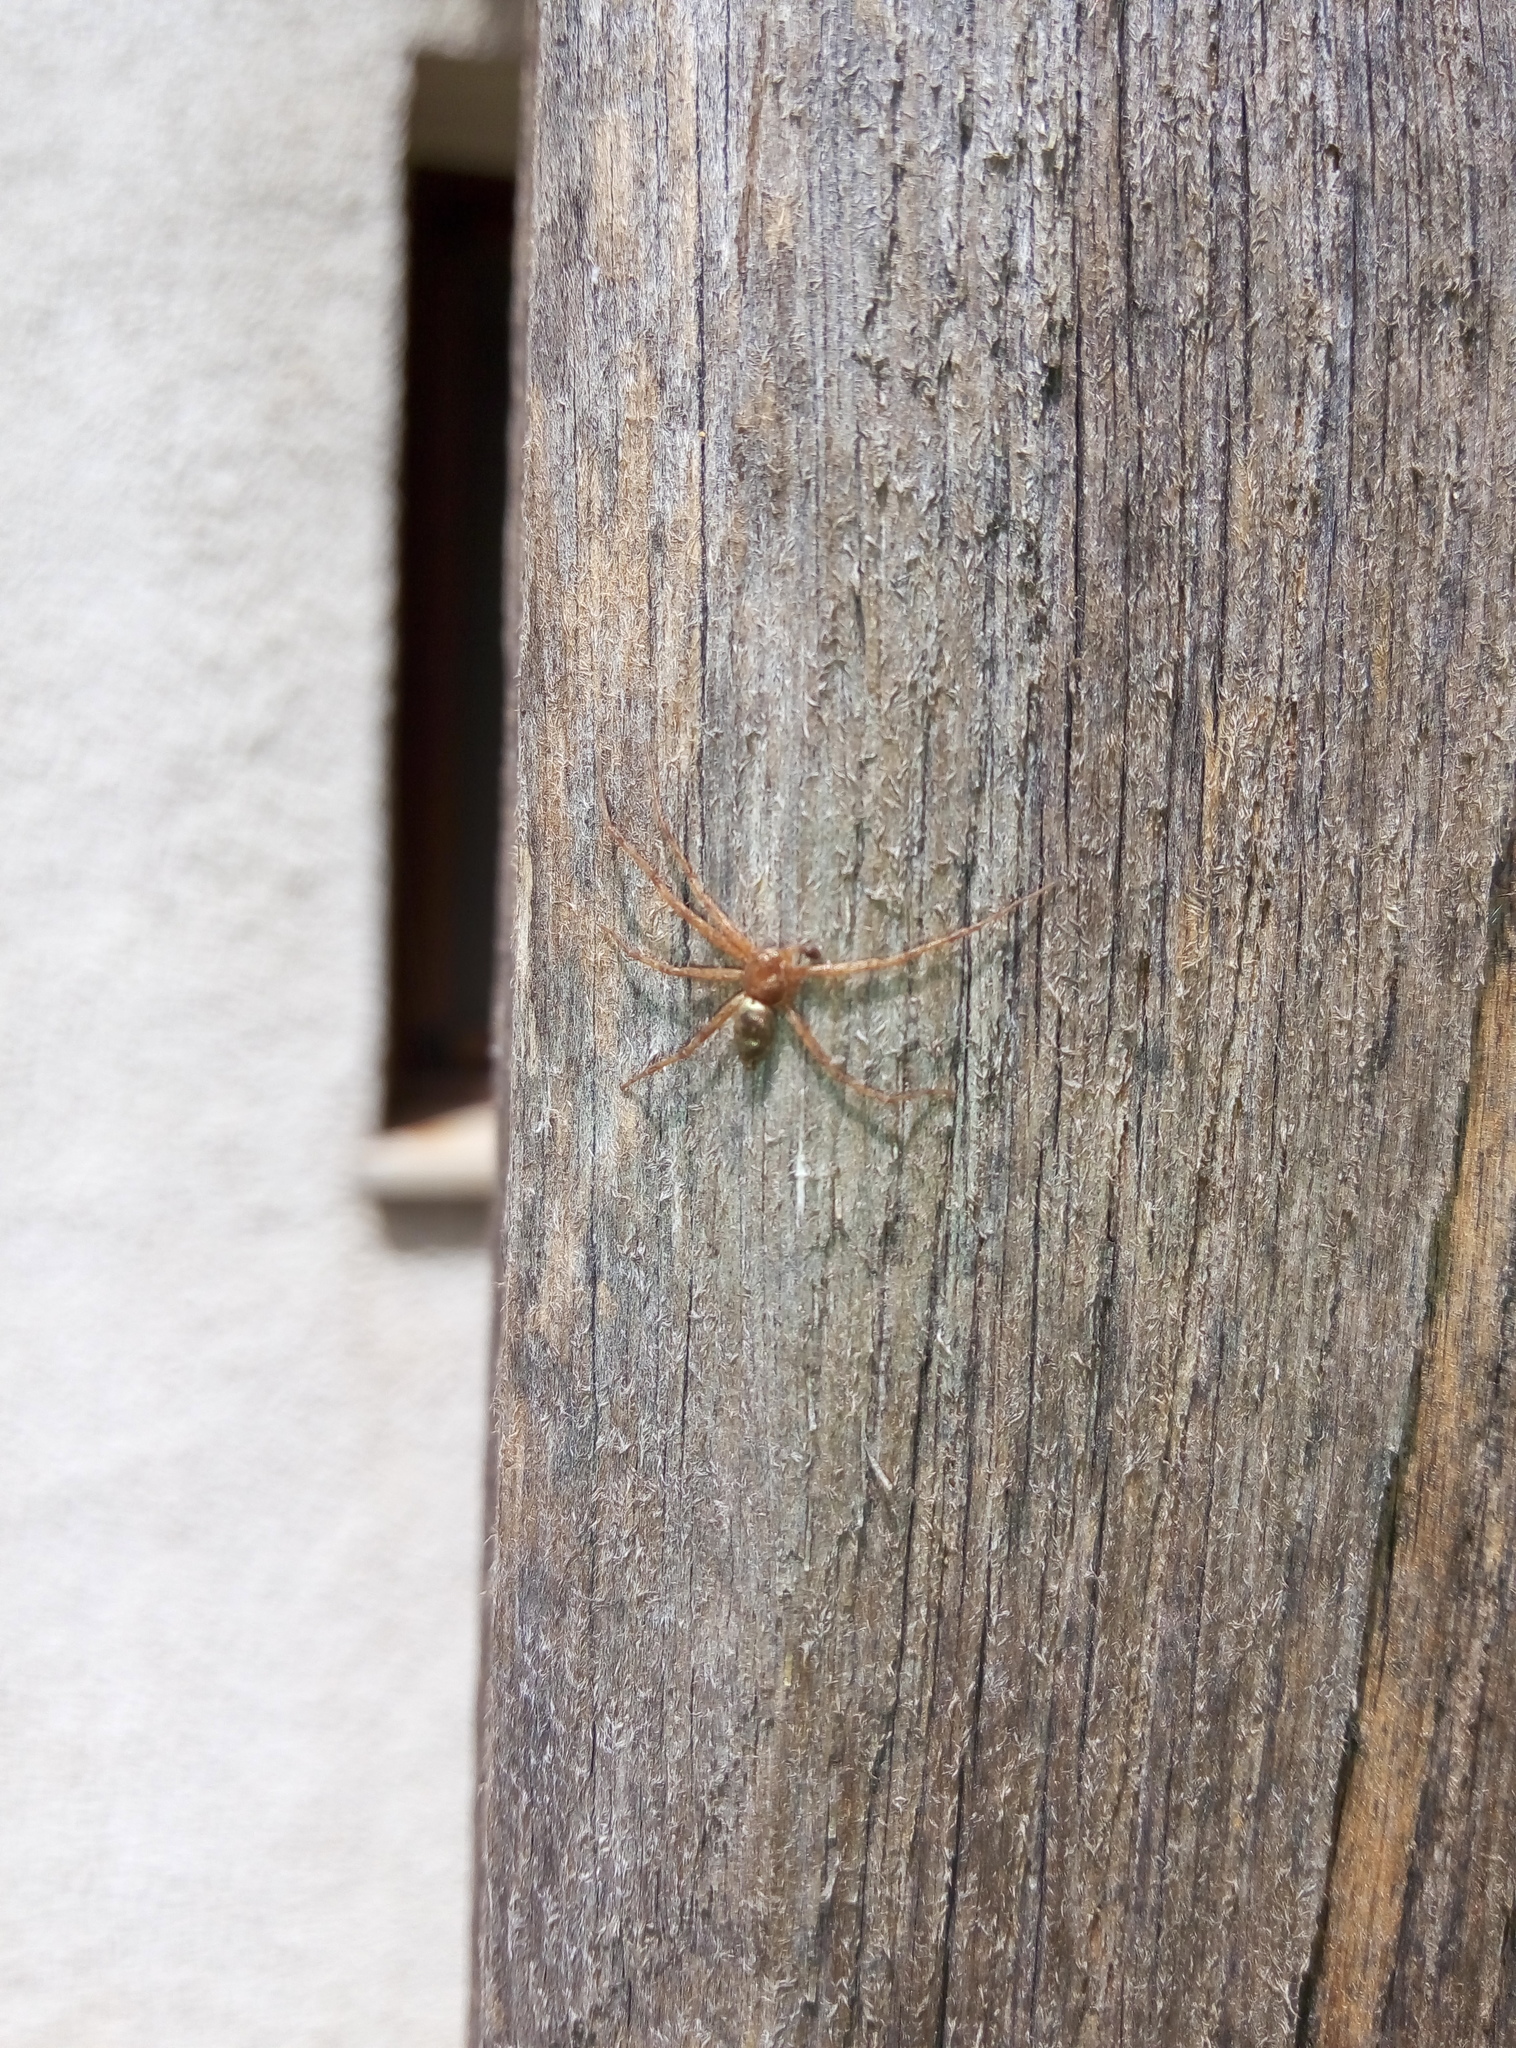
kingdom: Animalia
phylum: Arthropoda
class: Arachnida
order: Araneae
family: Philodromidae
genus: Philodromus
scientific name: Philodromus lunatus
